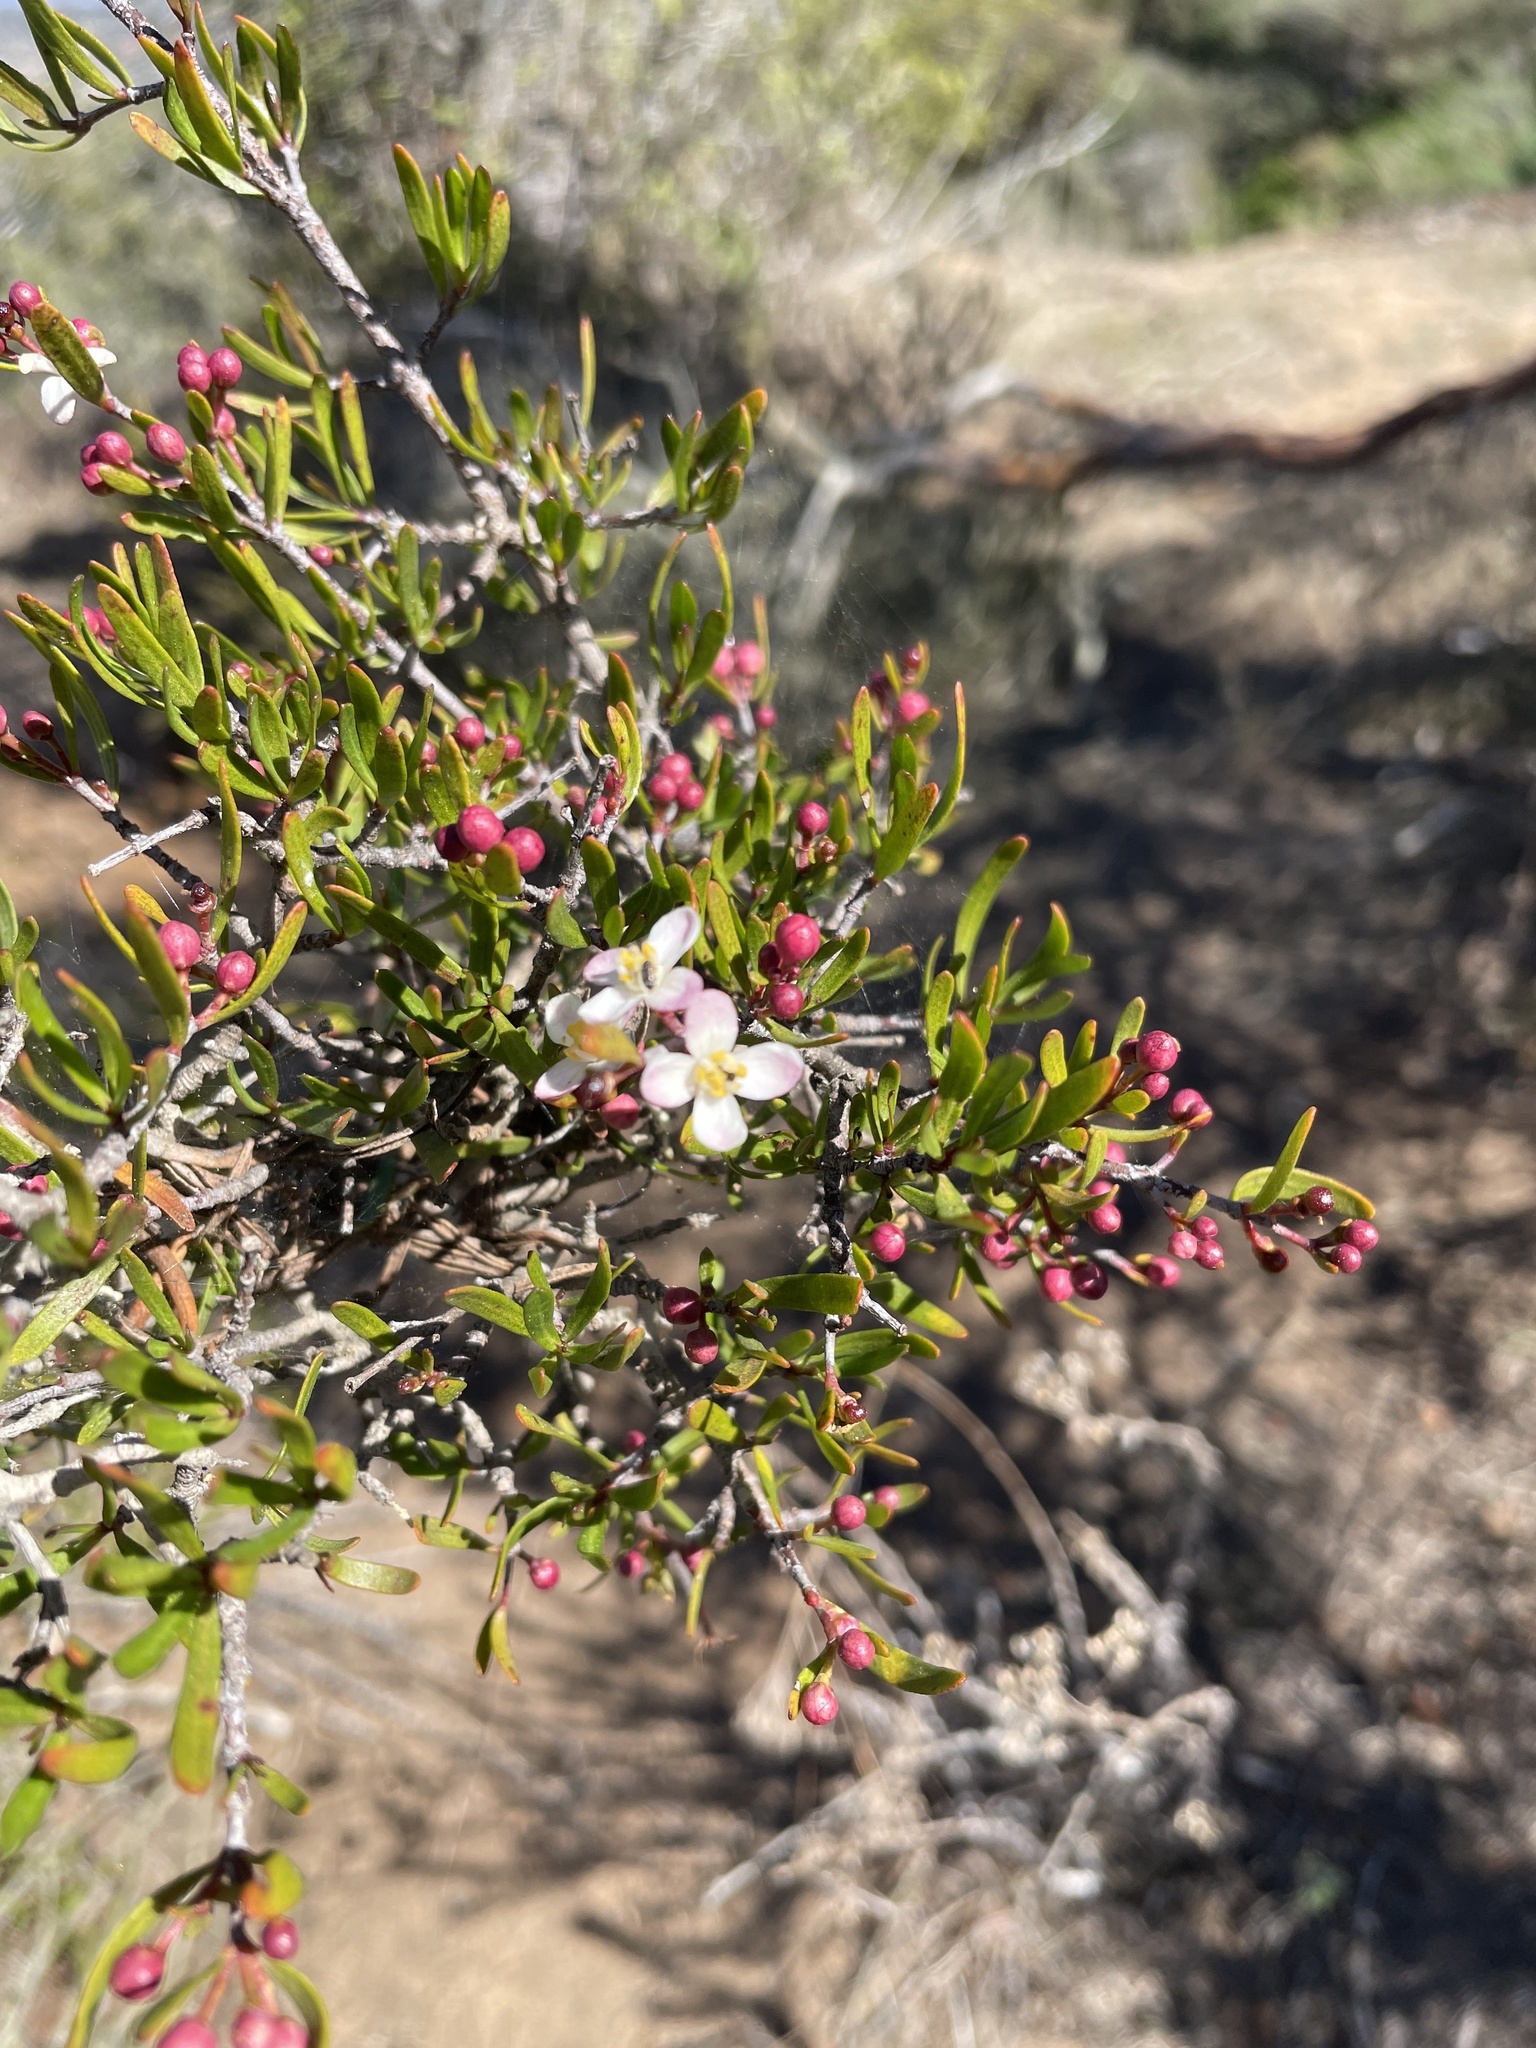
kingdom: Plantae
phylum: Tracheophyta
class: Magnoliopsida
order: Sapindales
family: Rutaceae
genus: Cneoridium
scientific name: Cneoridium dumosum
